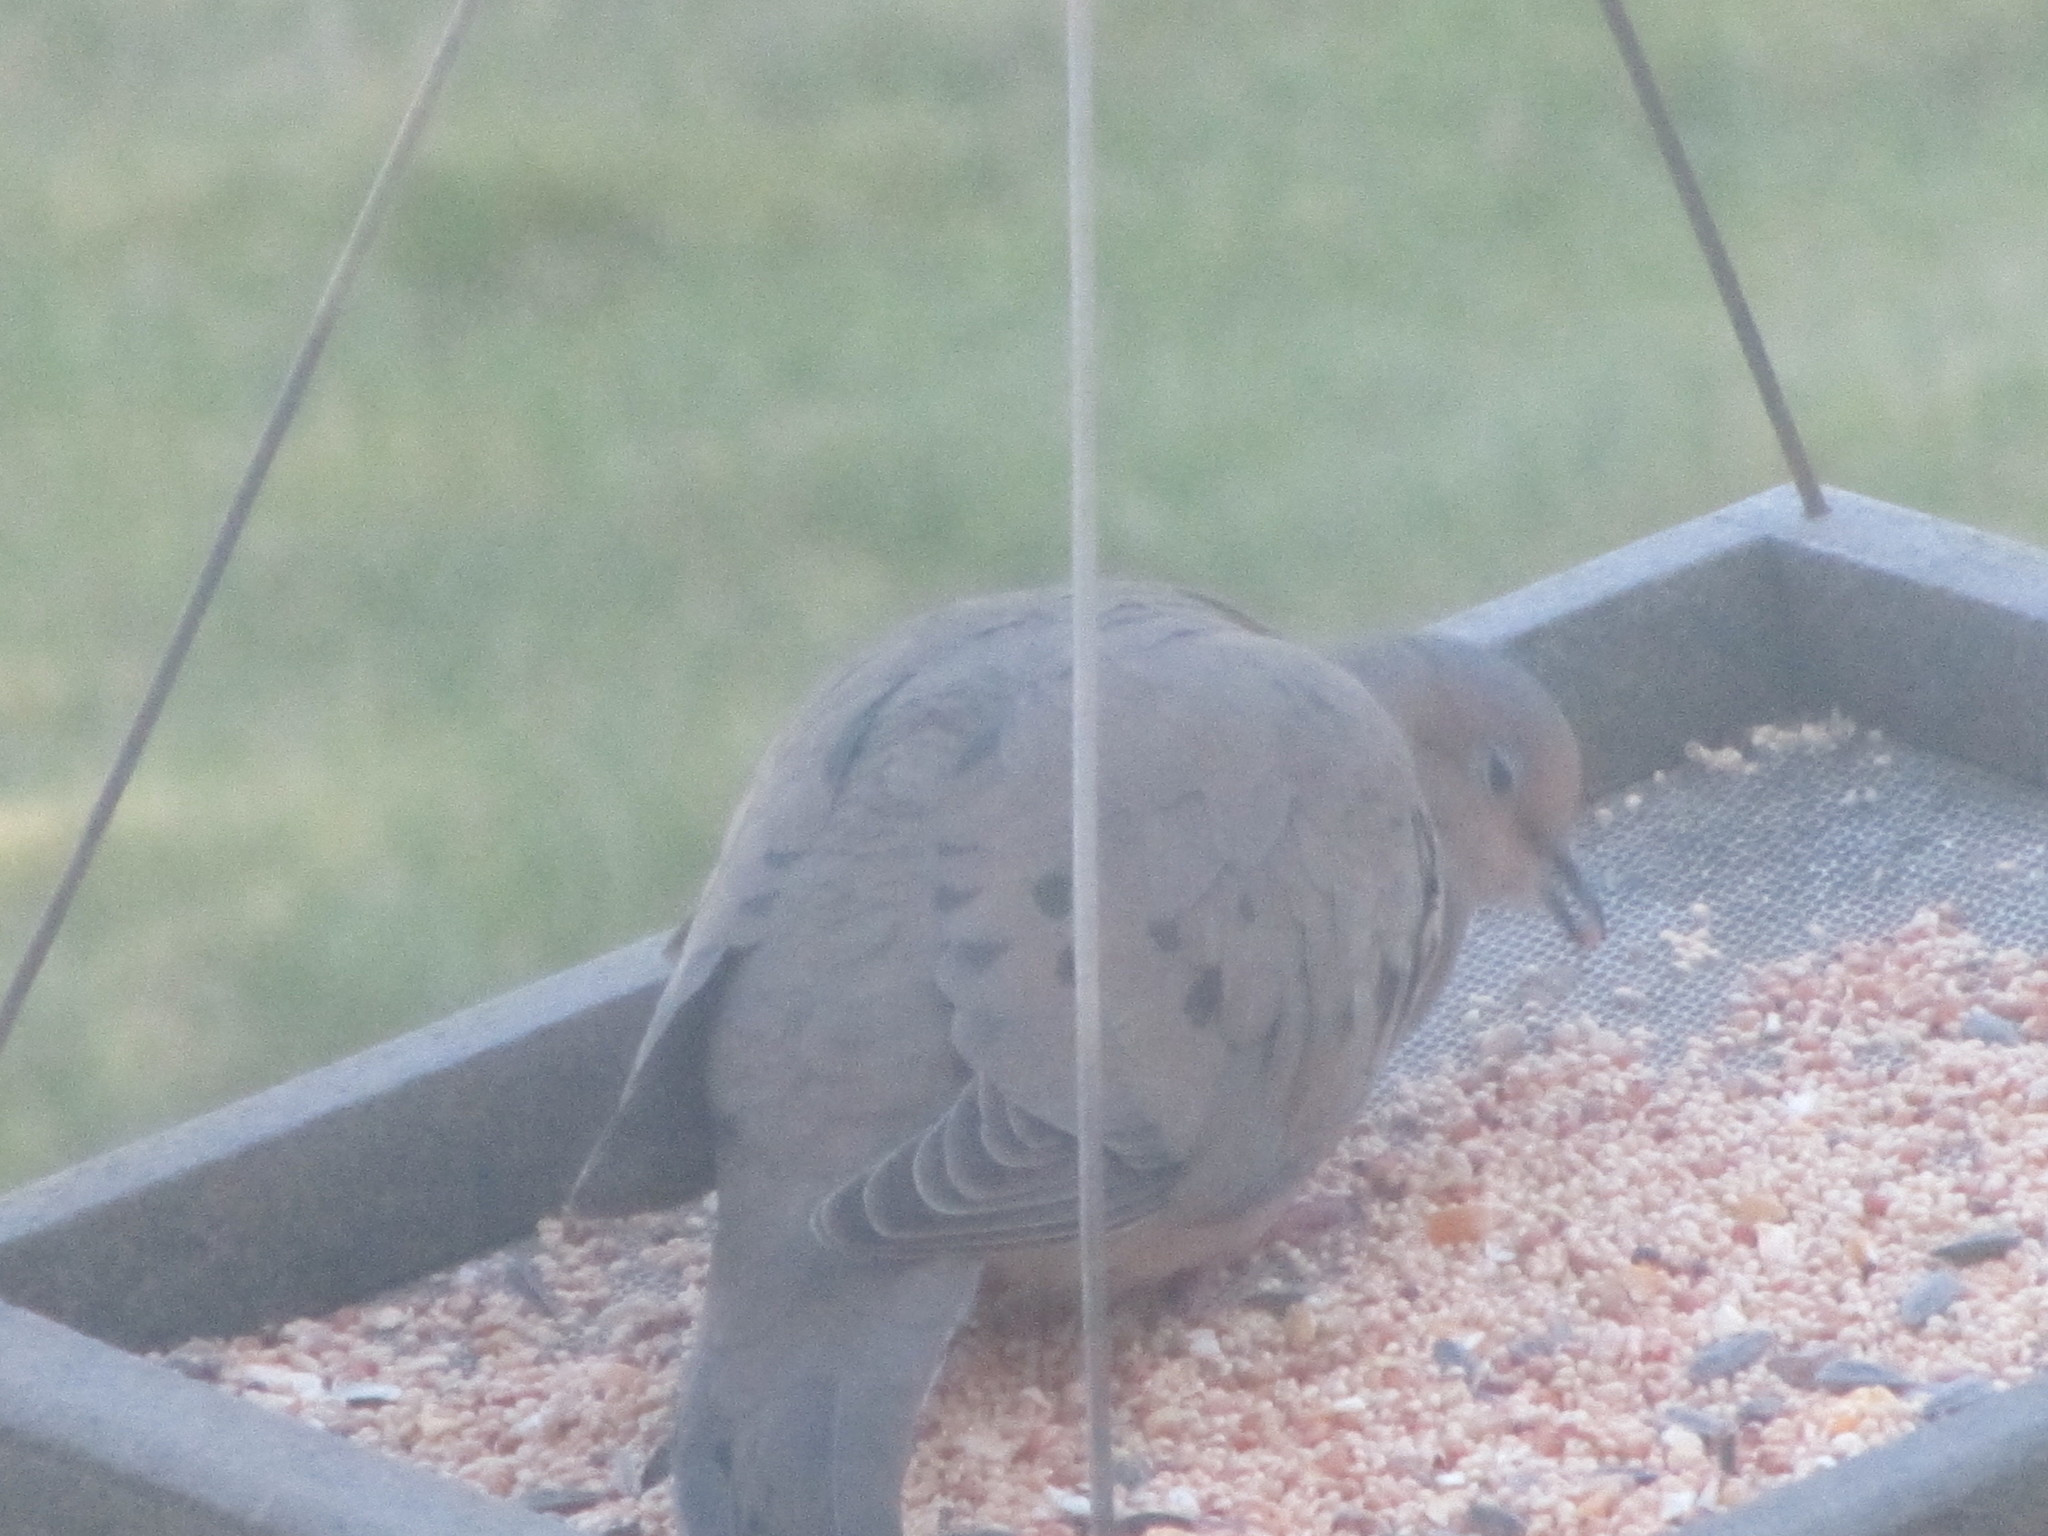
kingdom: Animalia
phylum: Chordata
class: Aves
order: Columbiformes
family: Columbidae
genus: Zenaida
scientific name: Zenaida macroura
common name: Mourning dove
